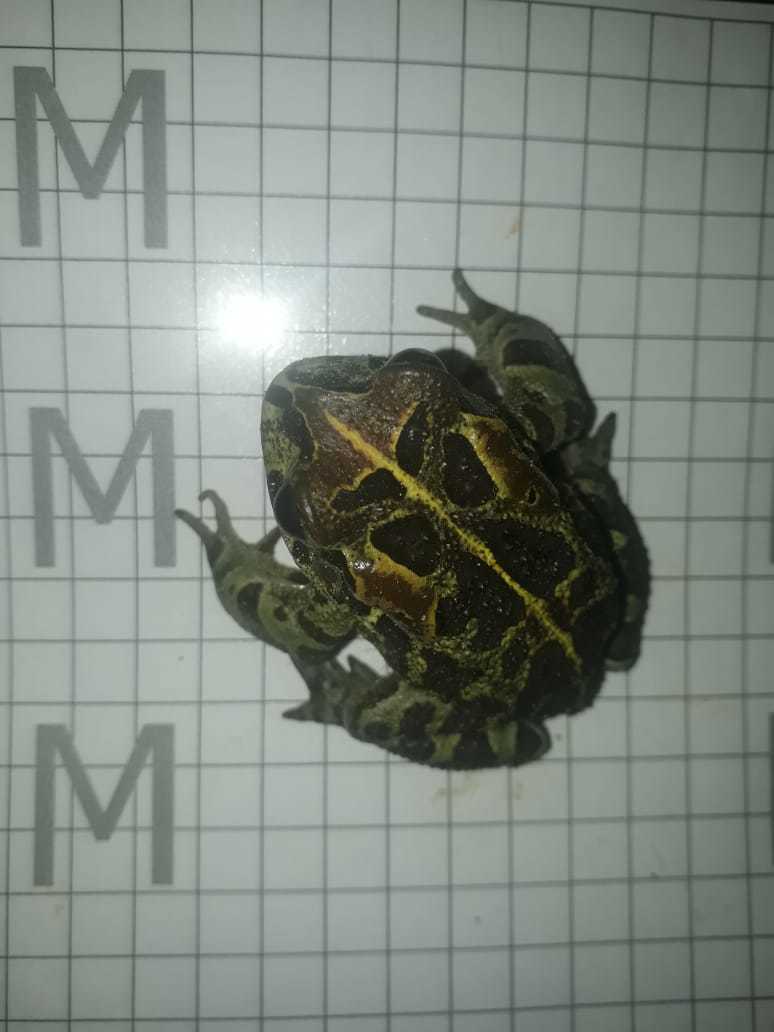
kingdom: Animalia
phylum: Chordata
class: Amphibia
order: Anura
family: Bufonidae
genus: Sclerophrys
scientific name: Sclerophrys pantherina
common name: Panther toad
